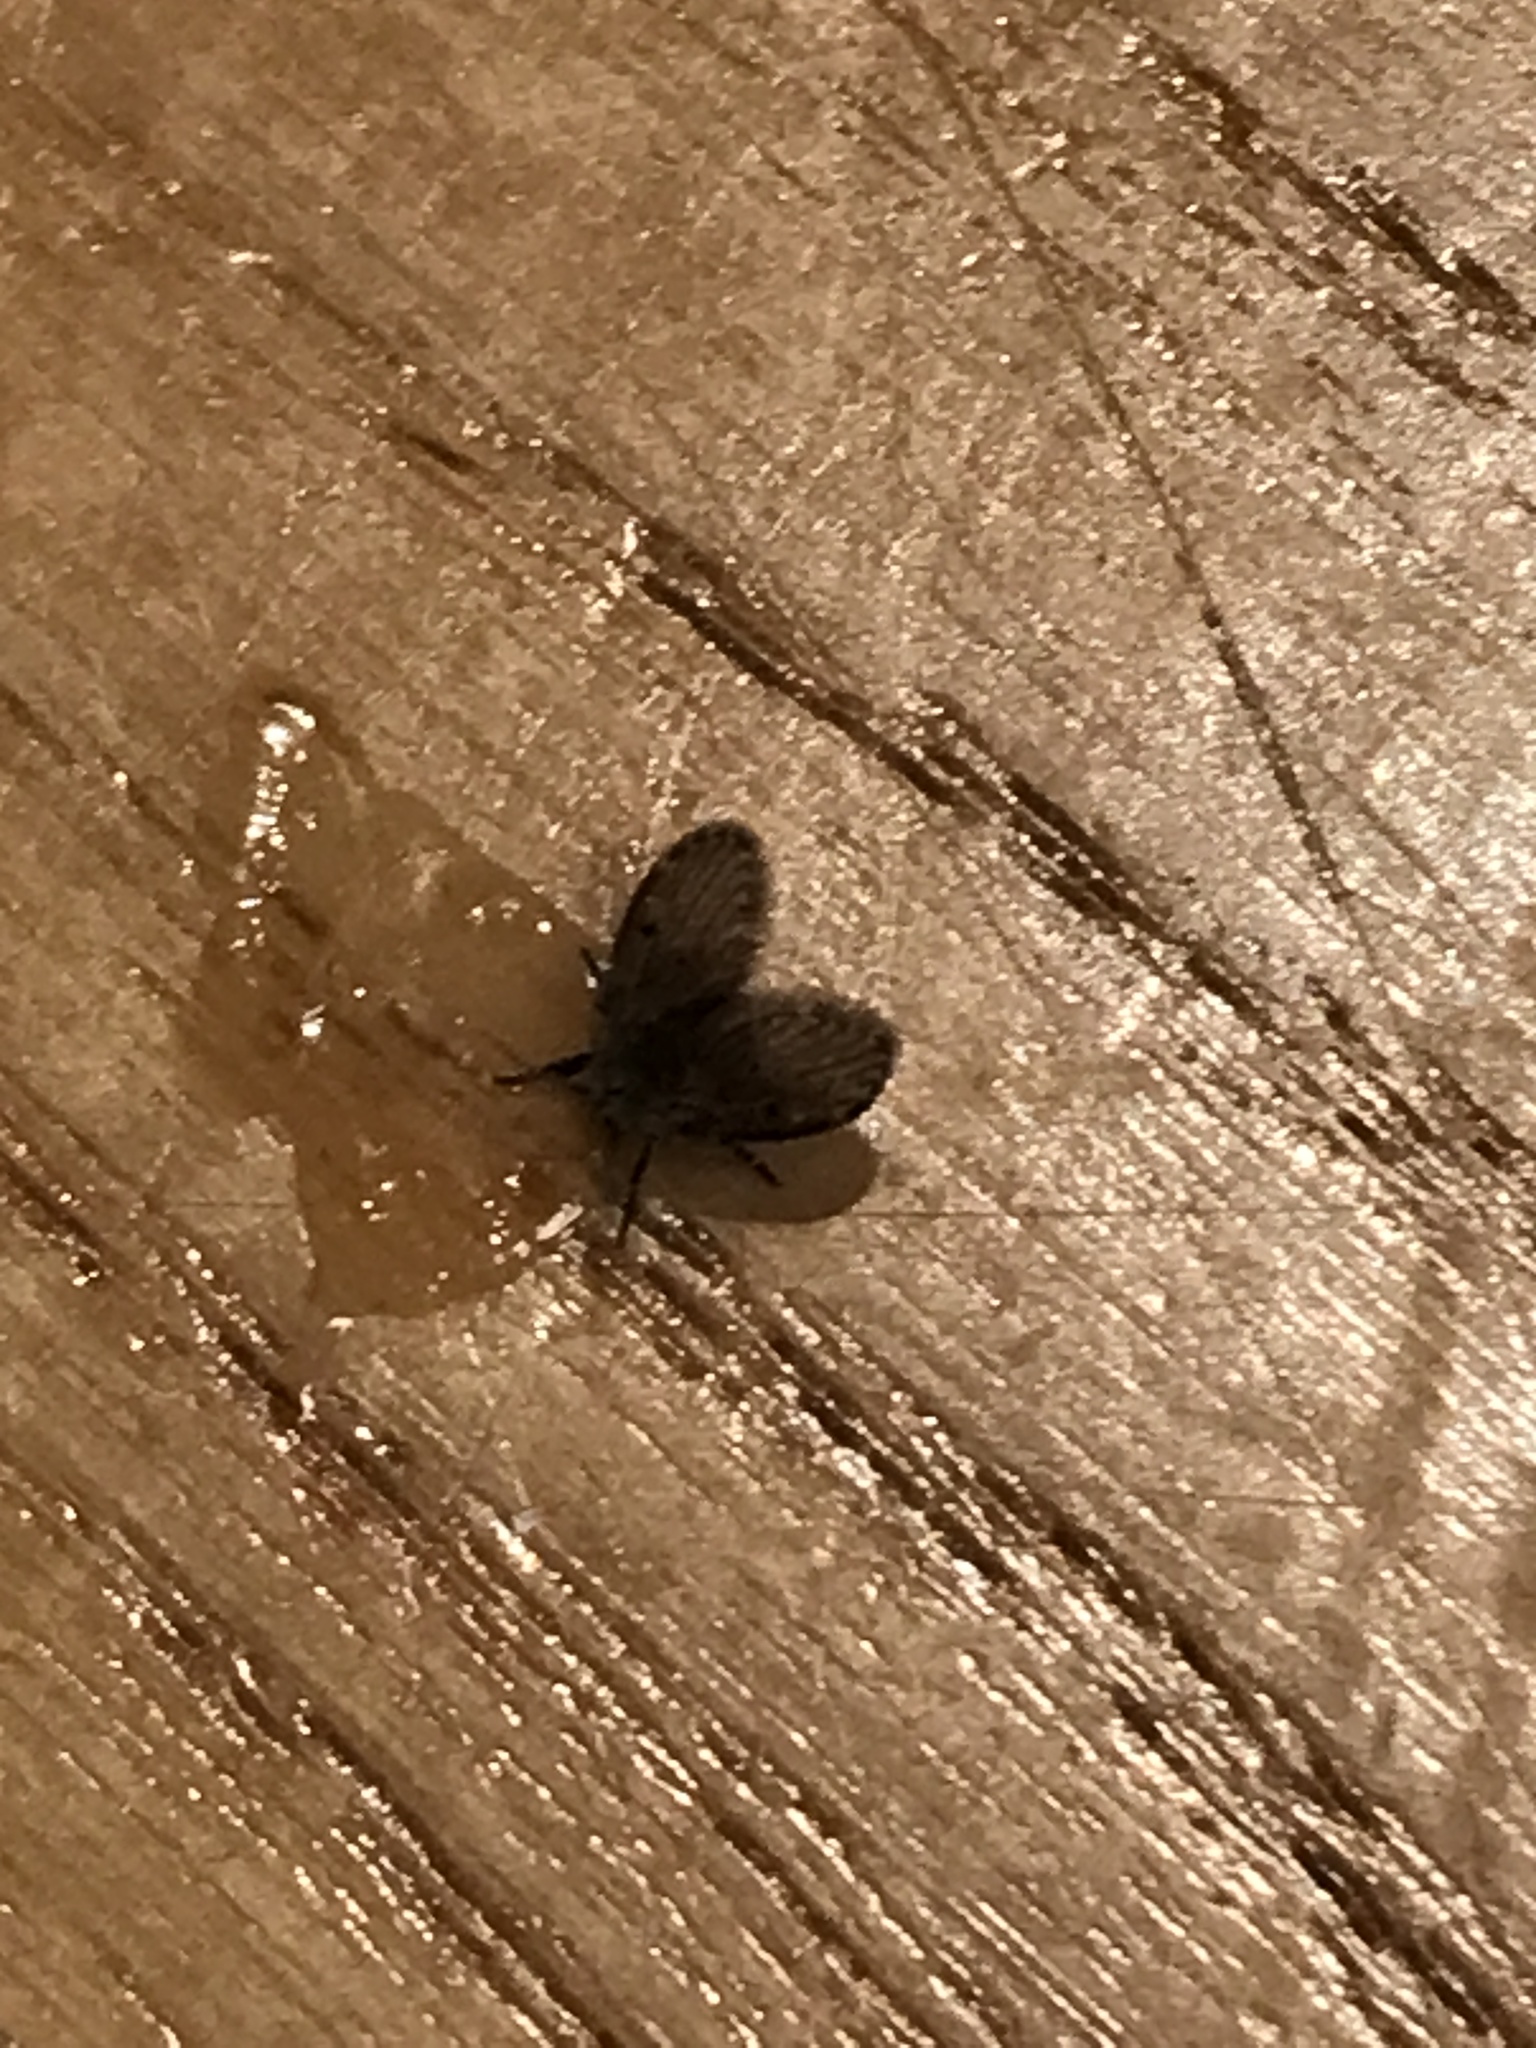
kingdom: Animalia
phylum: Arthropoda
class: Insecta
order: Diptera
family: Psychodidae
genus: Clogmia
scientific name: Clogmia albipunctatus
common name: White-spotted moth fly
